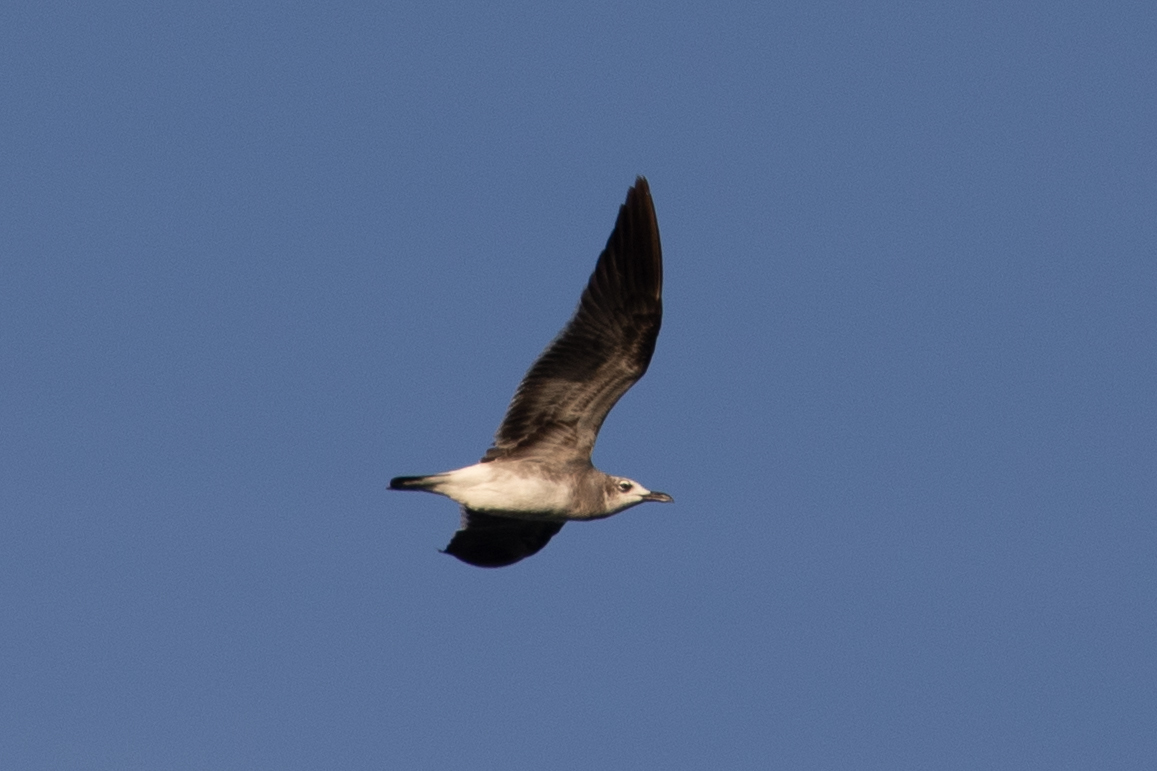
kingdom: Animalia
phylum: Chordata
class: Aves
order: Charadriiformes
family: Laridae
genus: Leucophaeus
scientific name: Leucophaeus atricilla
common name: Laughing gull
